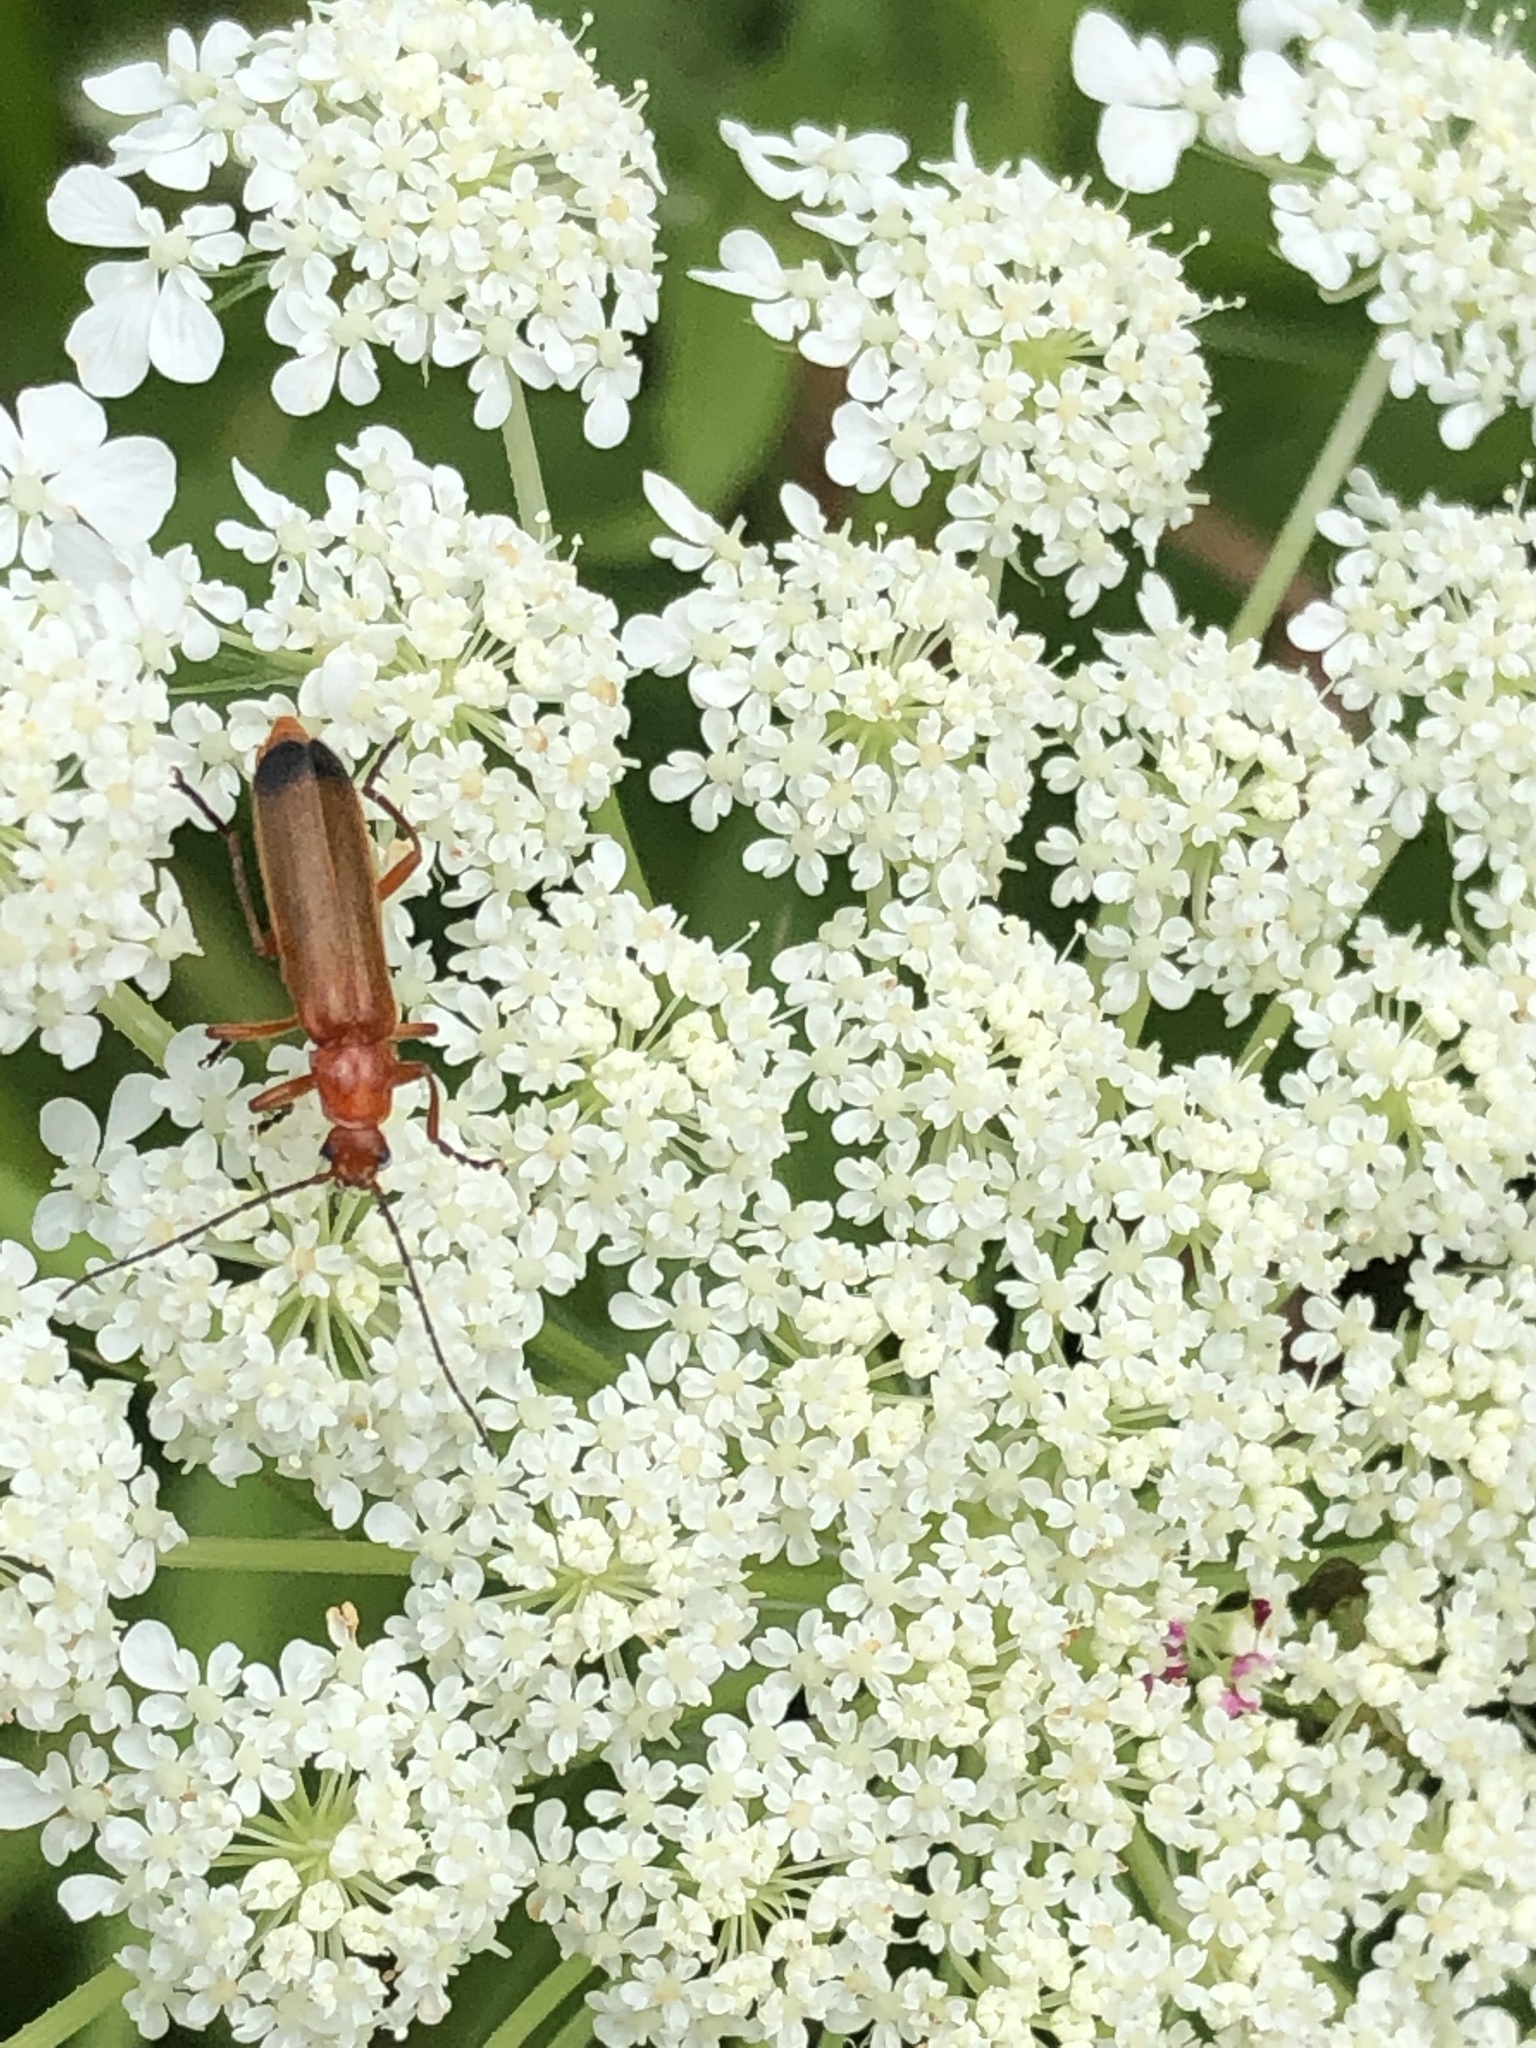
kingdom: Animalia
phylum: Arthropoda
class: Insecta
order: Coleoptera
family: Cantharidae
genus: Rhagonycha
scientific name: Rhagonycha fulva
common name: Common red soldier beetle
